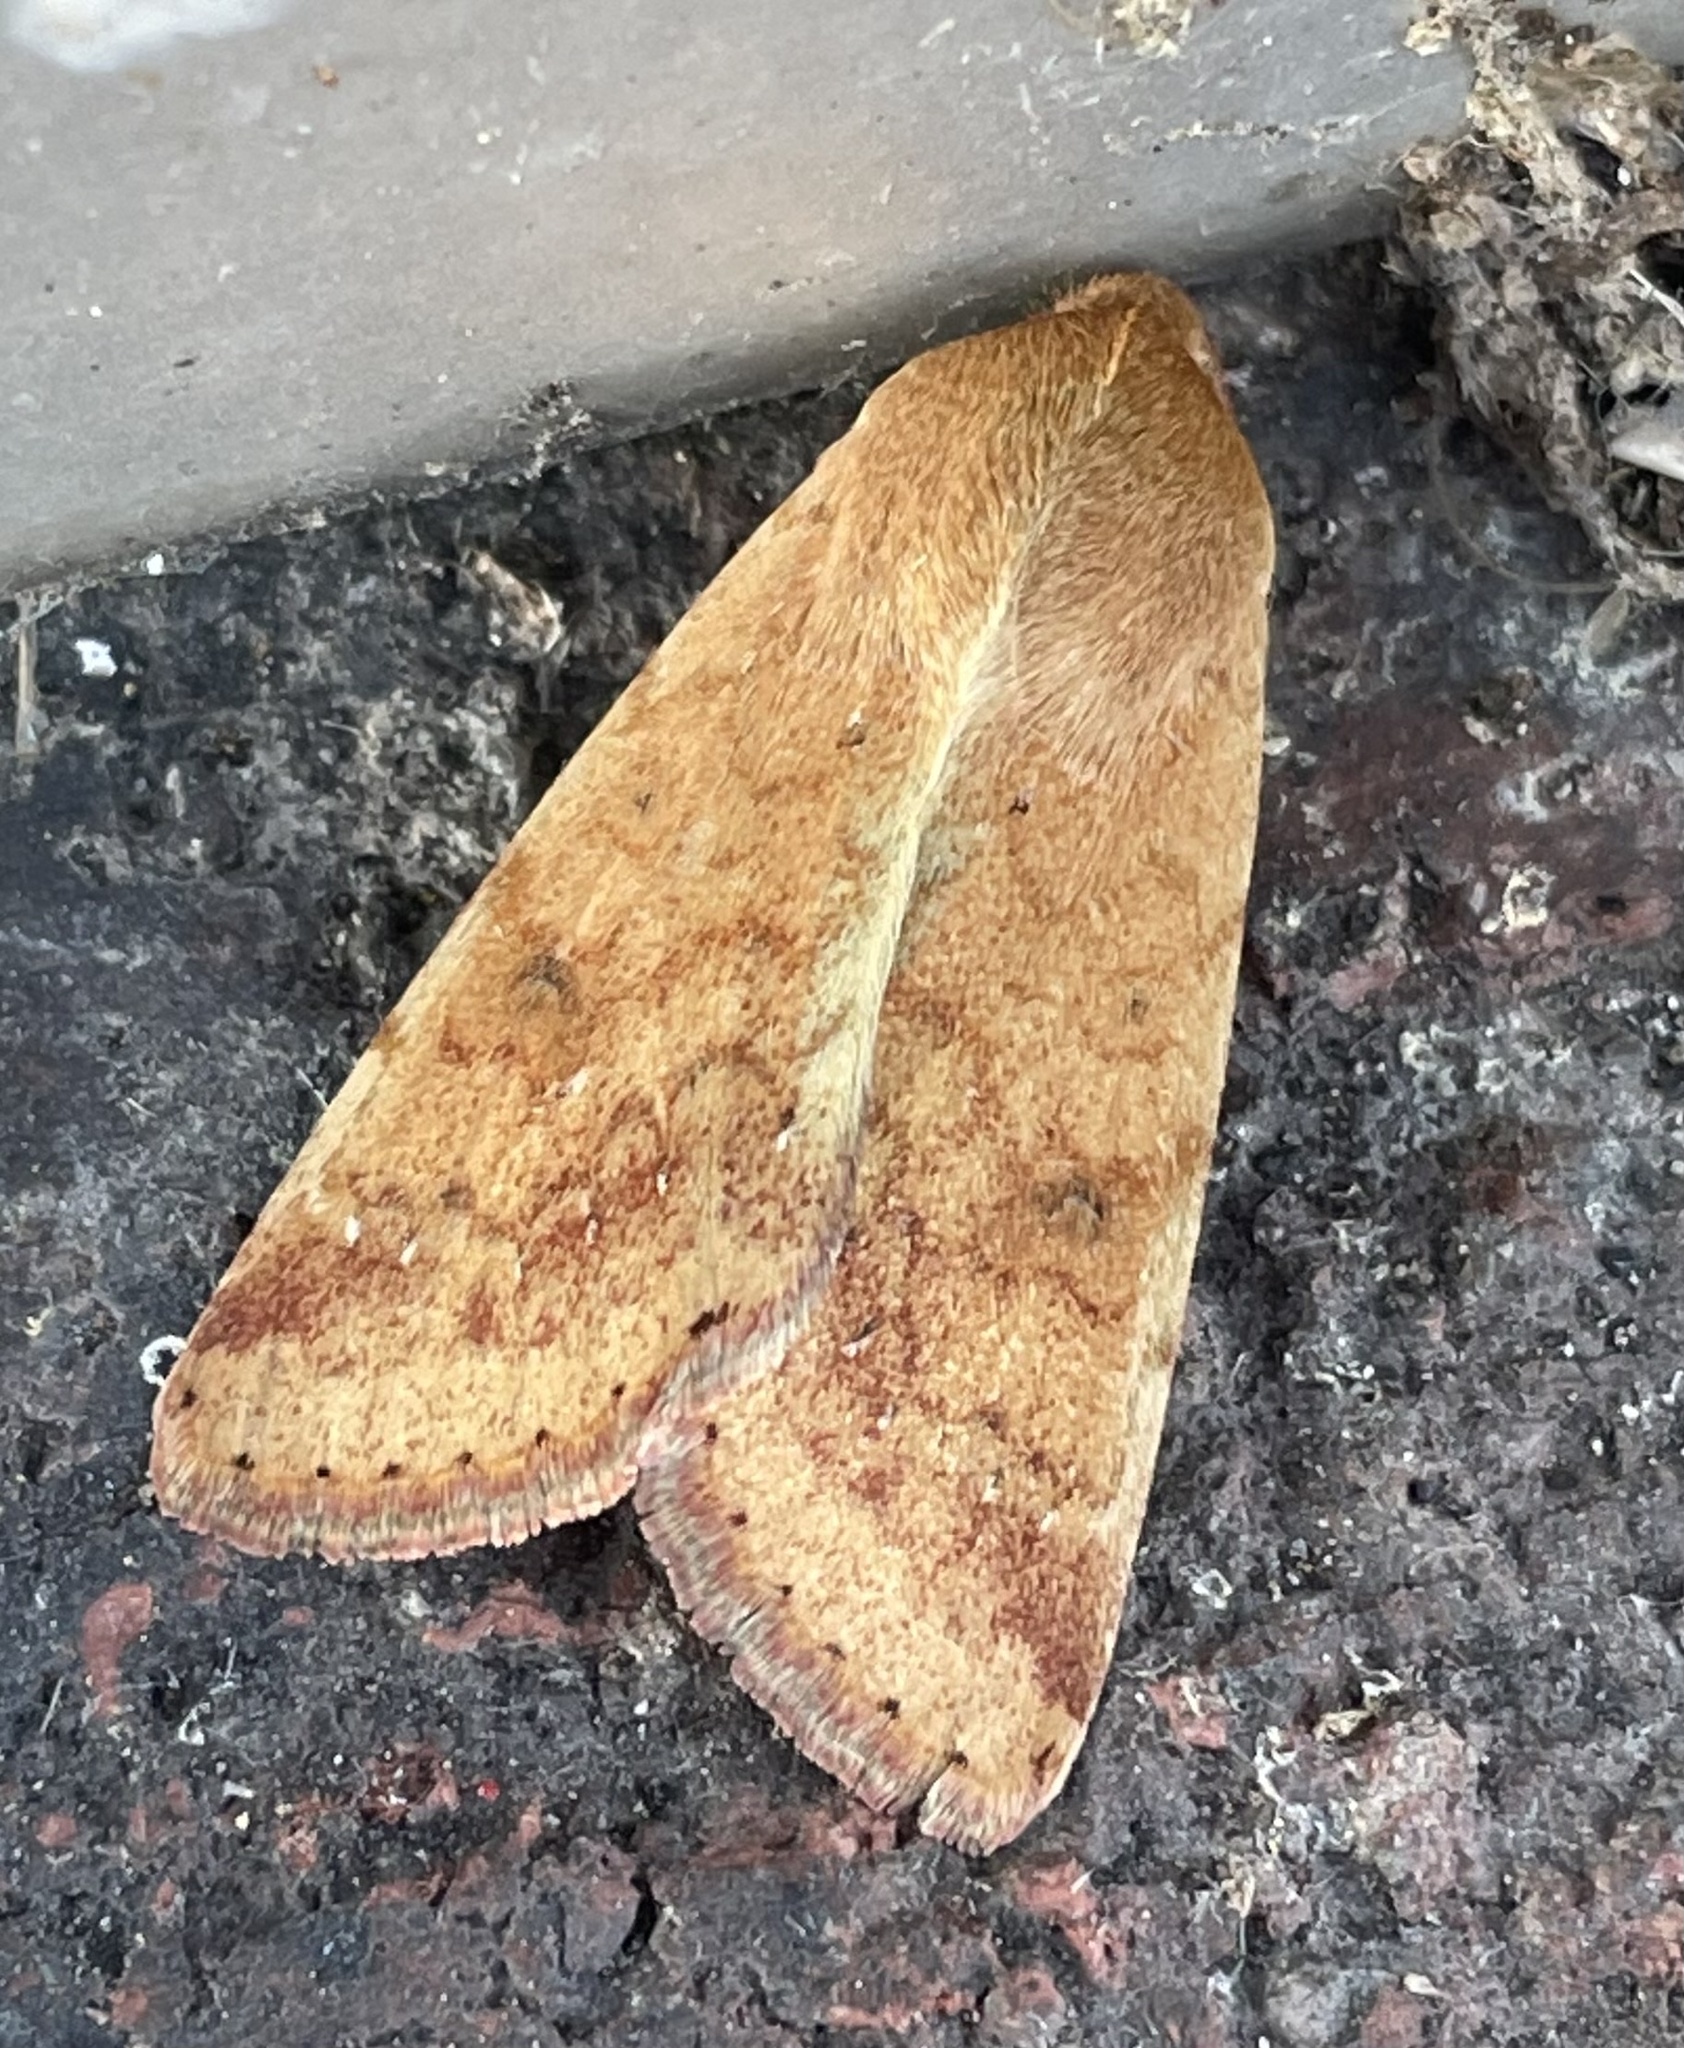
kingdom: Animalia
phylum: Arthropoda
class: Insecta
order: Lepidoptera
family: Noctuidae
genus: Helicoverpa
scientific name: Helicoverpa zea
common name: Bollworm
